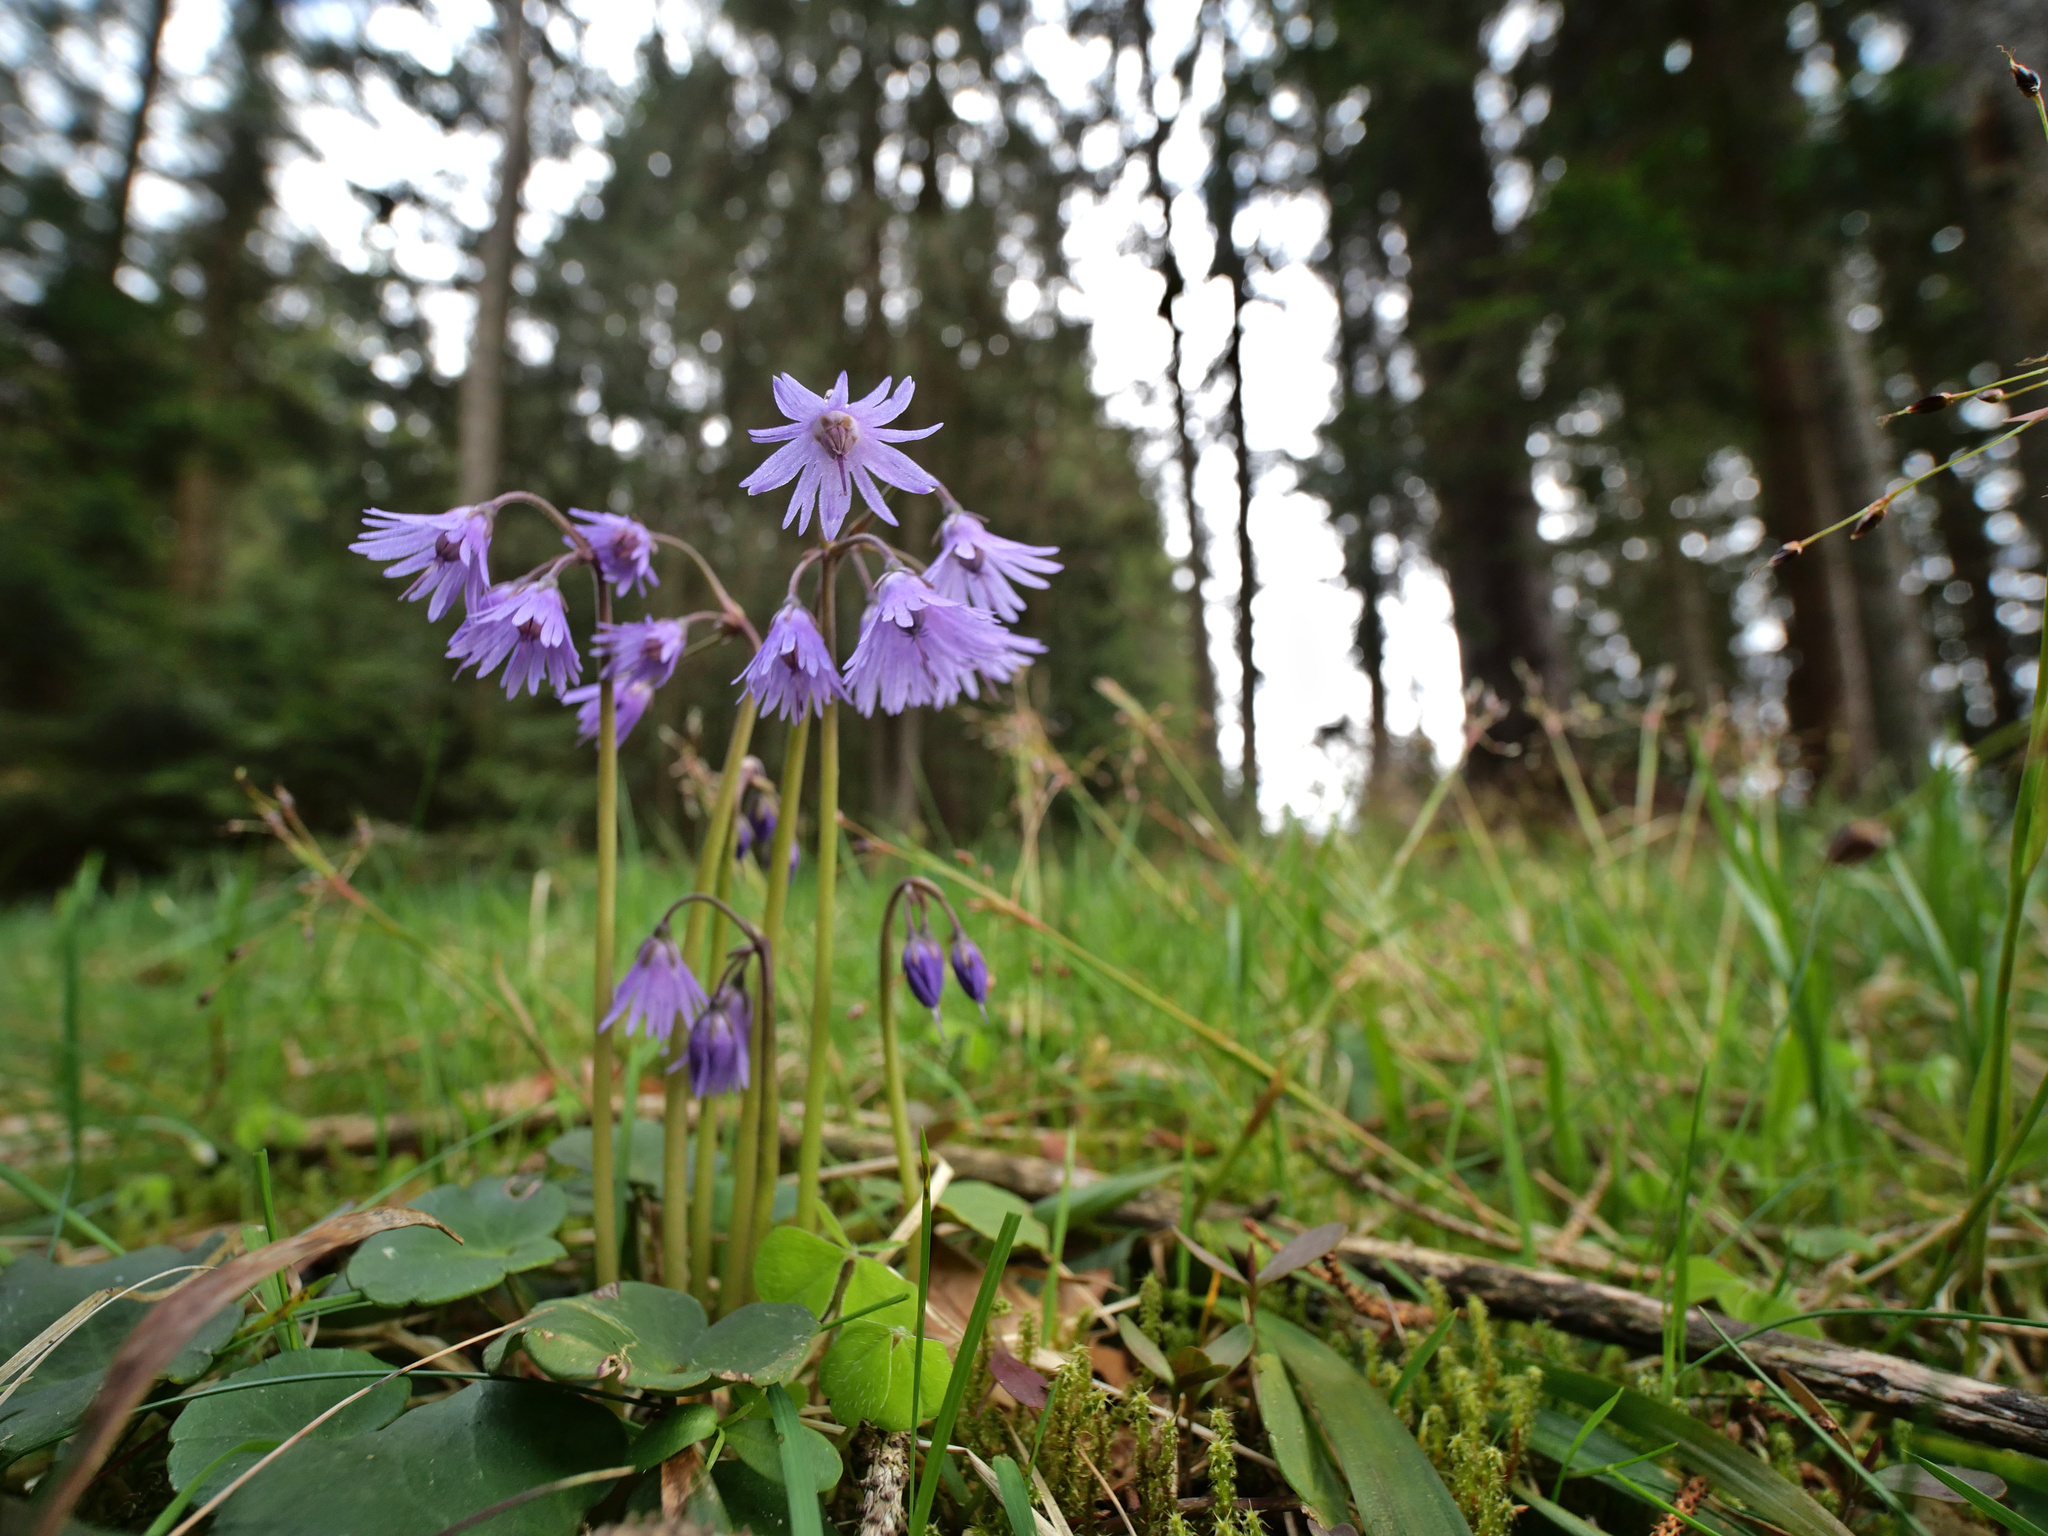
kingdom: Plantae
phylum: Tracheophyta
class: Magnoliopsida
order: Ericales
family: Primulaceae
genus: Soldanella
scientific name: Soldanella montana
